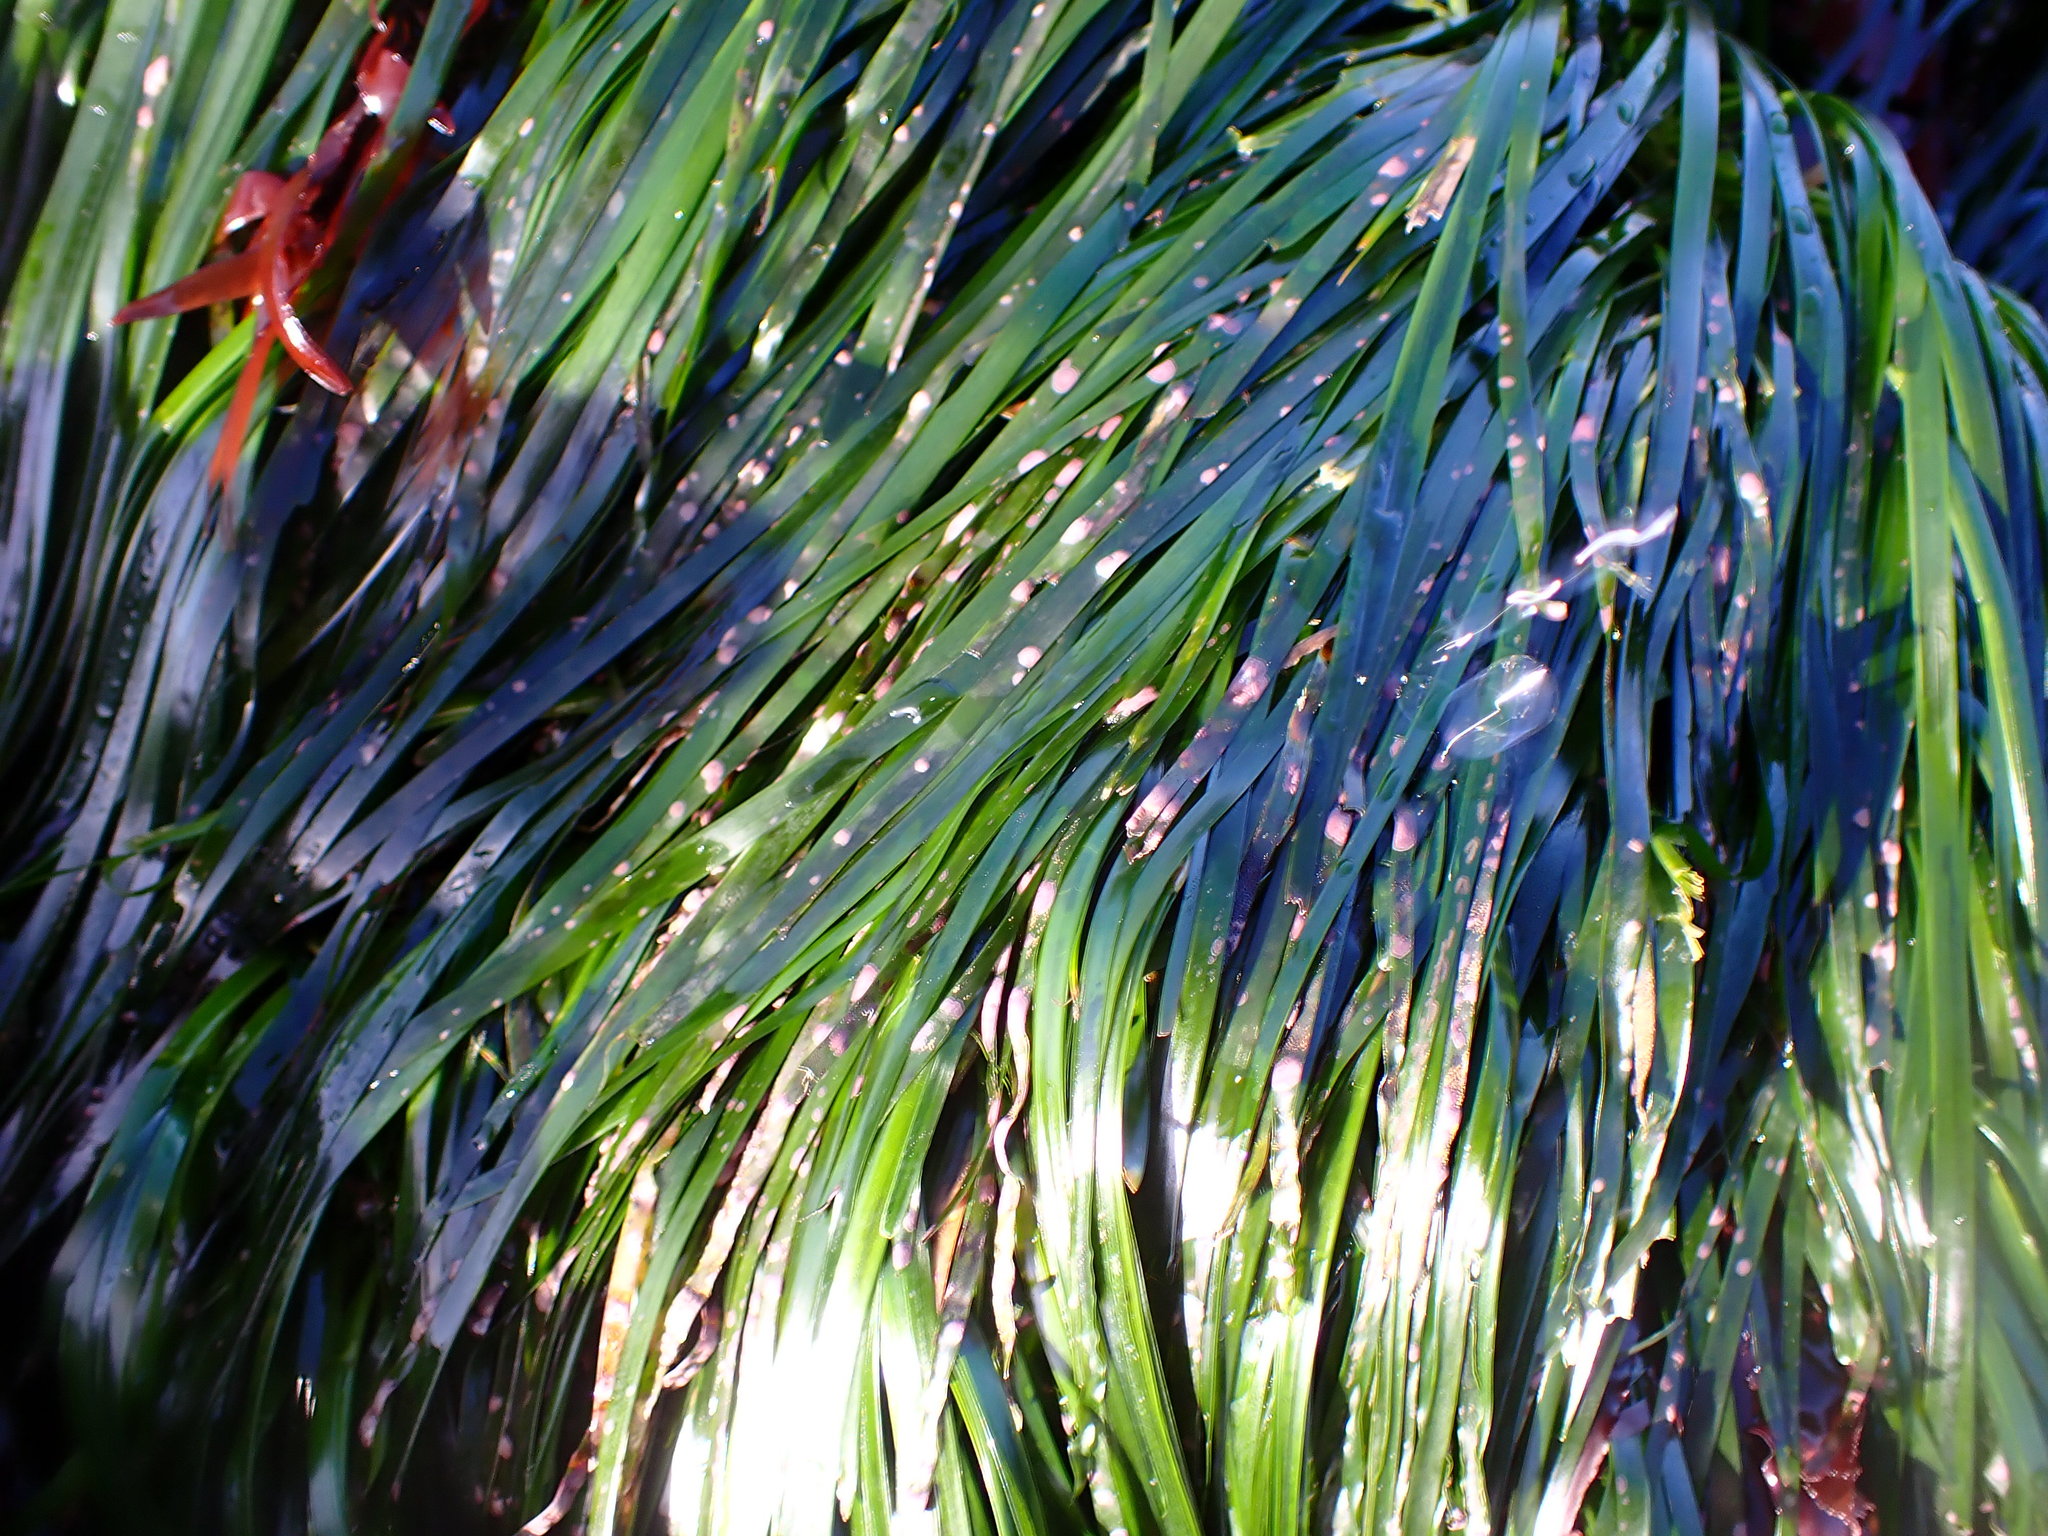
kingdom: Plantae
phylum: Tracheophyta
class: Liliopsida
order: Alismatales
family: Zosteraceae
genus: Phyllospadix
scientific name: Phyllospadix scouleri
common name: Species code: ps
